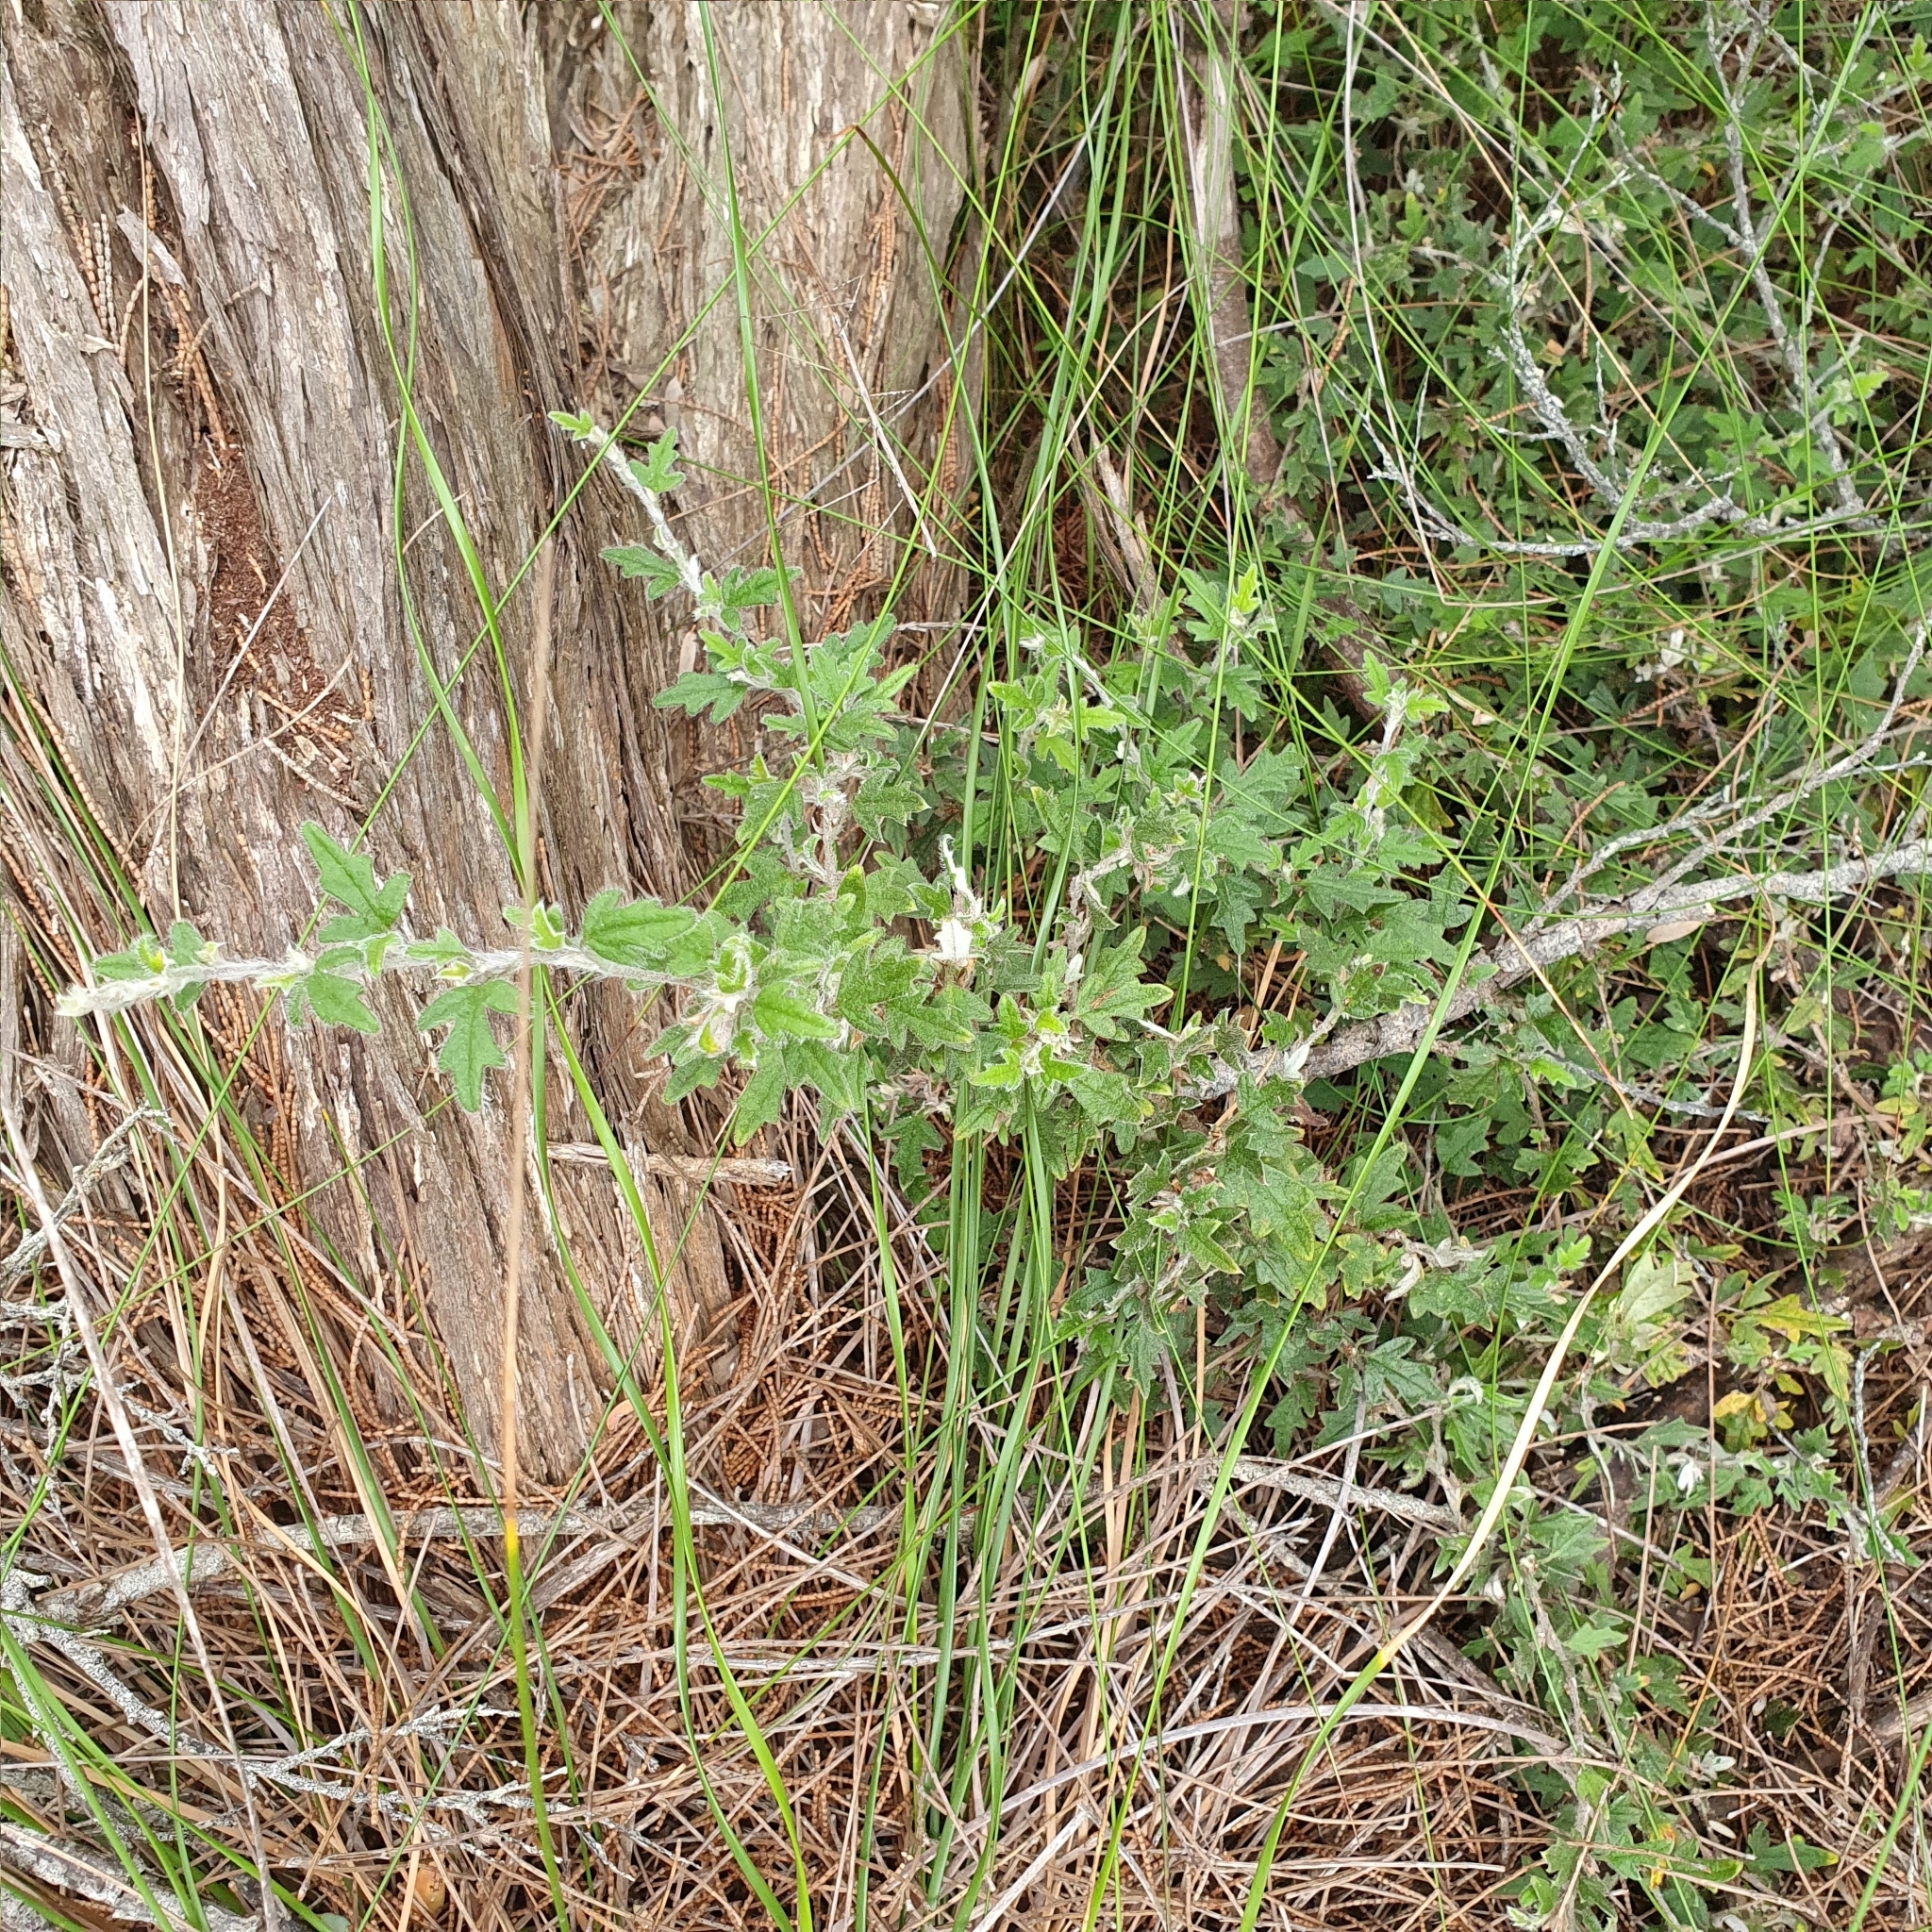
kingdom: Plantae
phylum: Tracheophyta
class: Magnoliopsida
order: Apiales
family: Apiaceae
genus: Xanthosia
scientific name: Xanthosia pilosa
